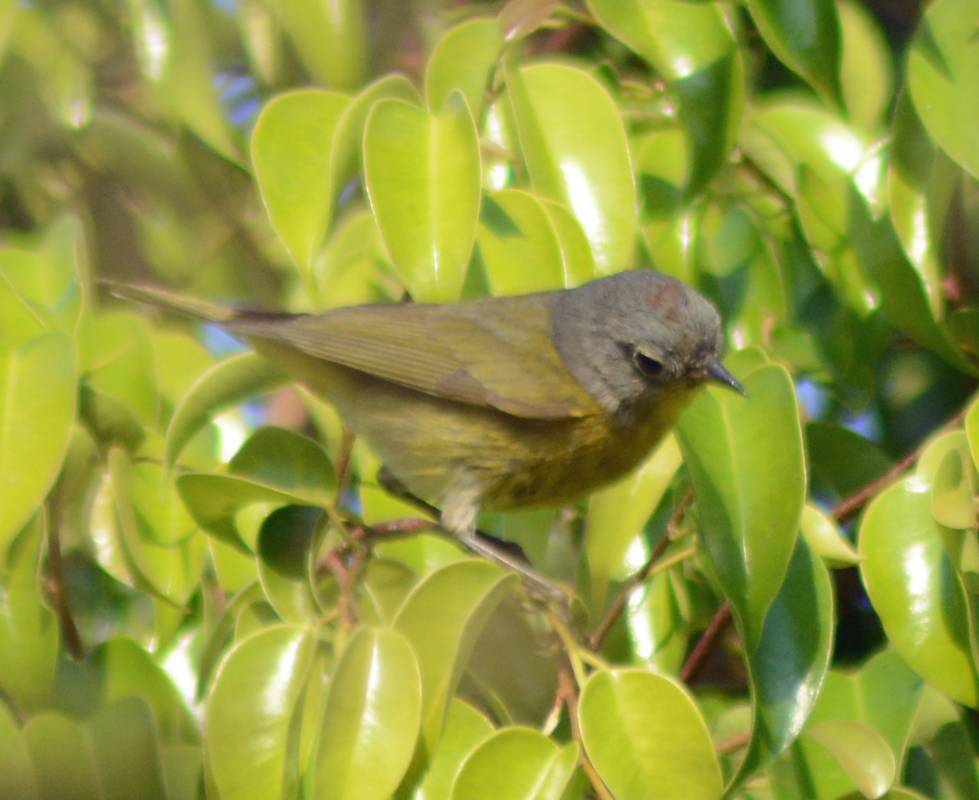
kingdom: Animalia
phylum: Chordata
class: Aves
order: Passeriformes
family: Parulidae
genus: Leiothlypis
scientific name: Leiothlypis ruficapilla
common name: Nashville warbler
